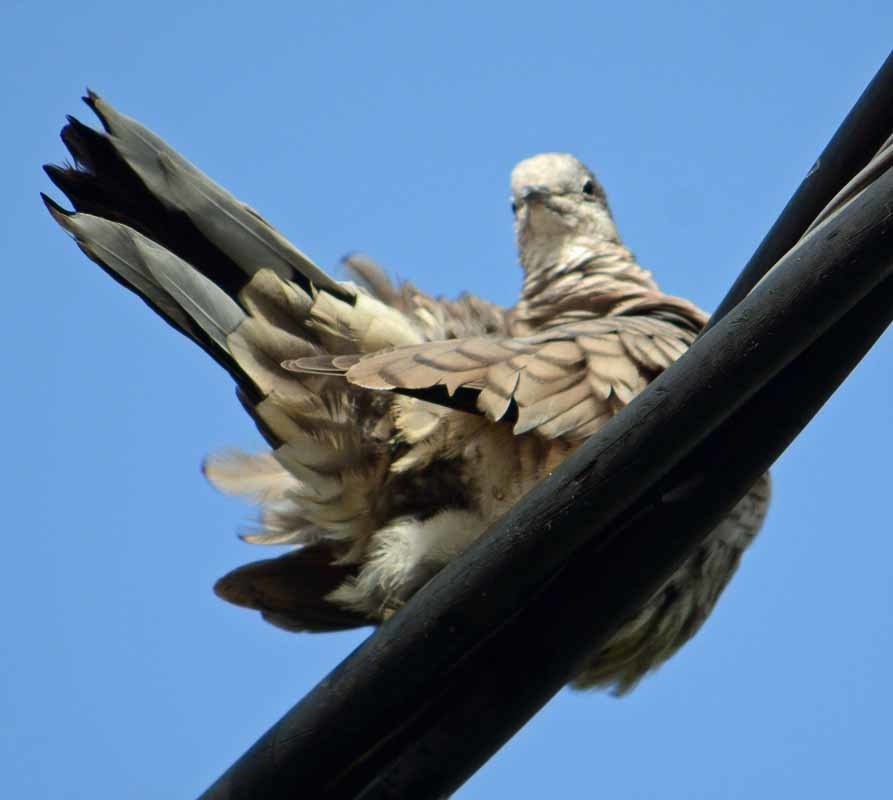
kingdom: Animalia
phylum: Chordata
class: Aves
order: Columbiformes
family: Columbidae
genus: Columbina
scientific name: Columbina inca
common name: Inca dove
